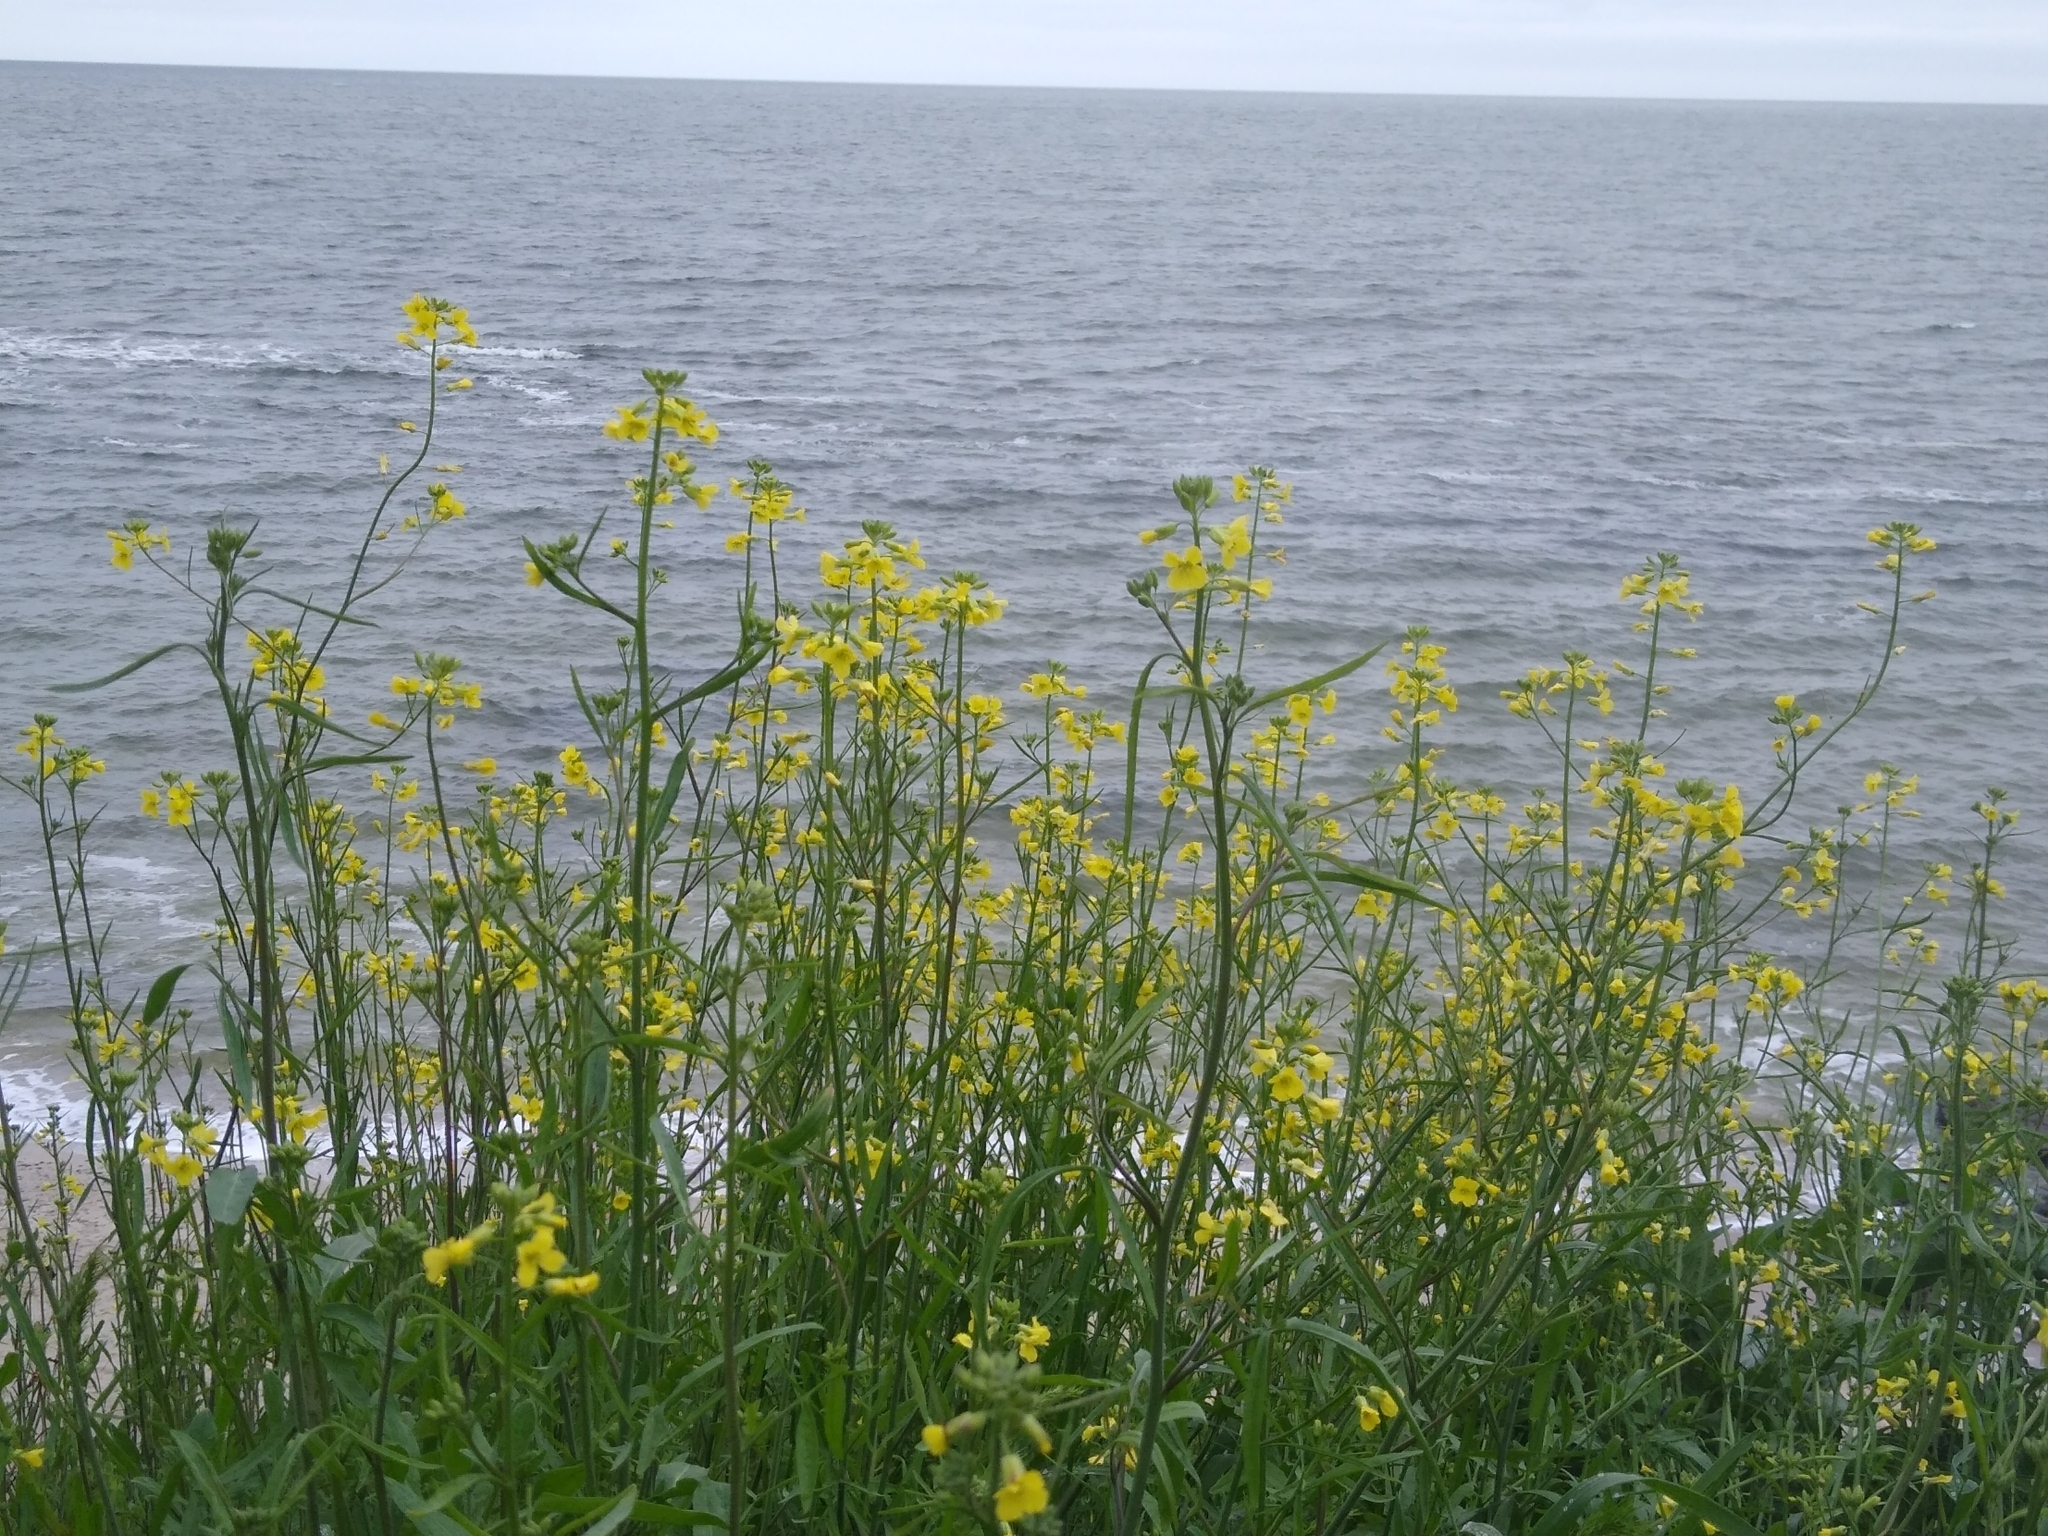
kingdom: Plantae
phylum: Tracheophyta
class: Magnoliopsida
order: Brassicales
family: Brassicaceae
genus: Sisymbrium
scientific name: Sisymbrium orientale
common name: Eastern rocket
